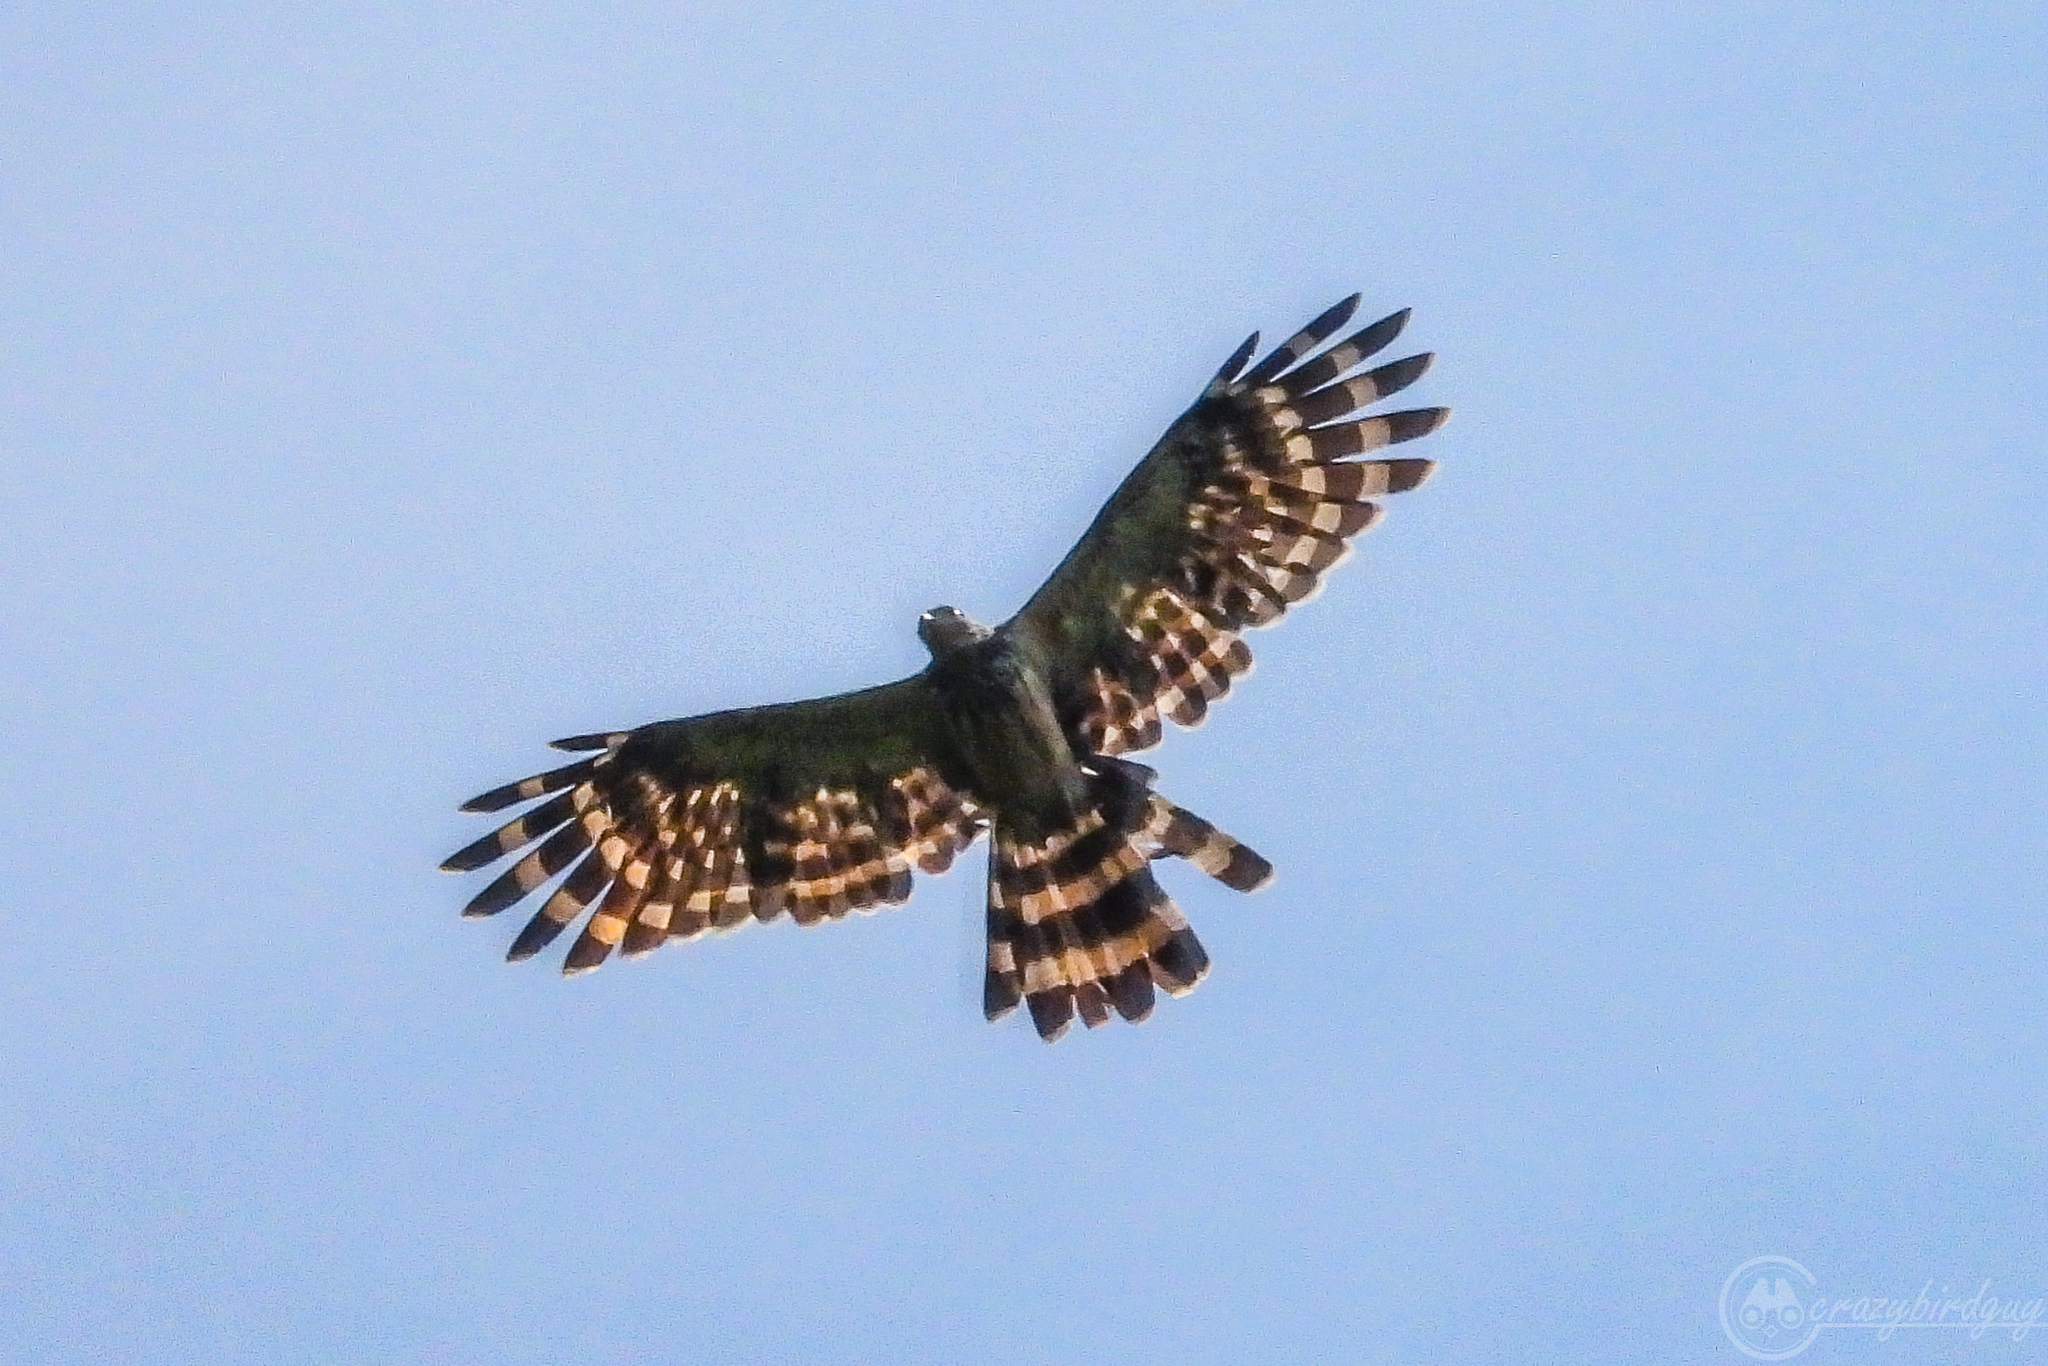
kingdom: Animalia
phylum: Chordata
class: Aves
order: Accipitriformes
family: Accipitridae
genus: Henicopernis
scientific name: Henicopernis longicauda
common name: Long-tailed honey buzzard
